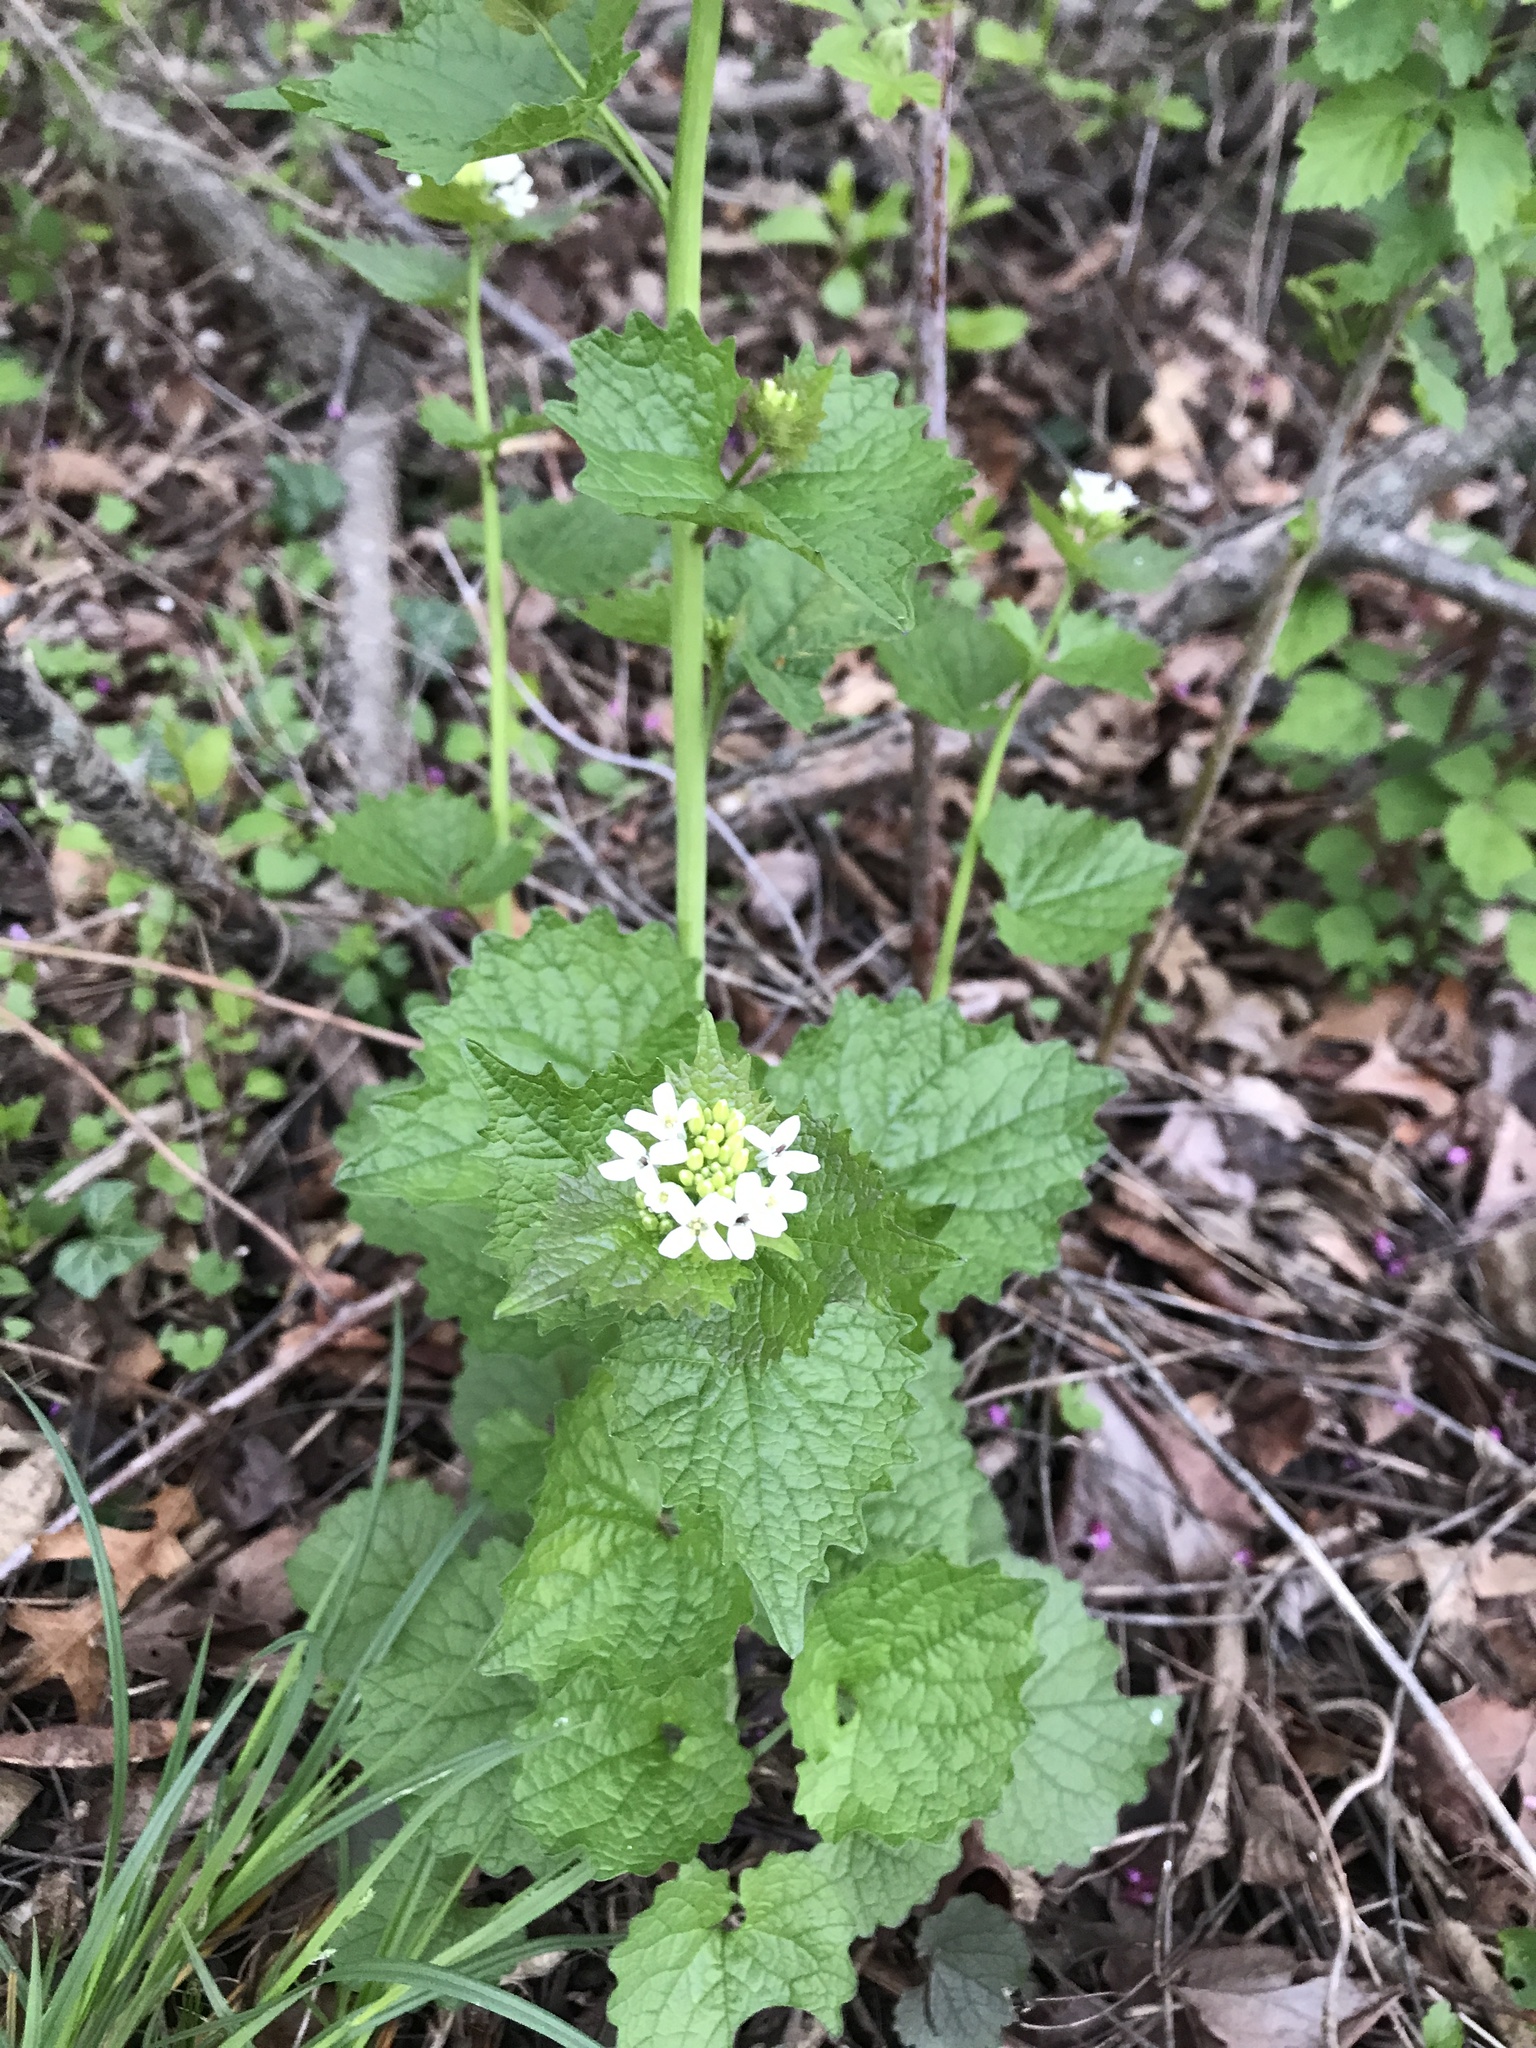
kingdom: Plantae
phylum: Tracheophyta
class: Magnoliopsida
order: Brassicales
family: Brassicaceae
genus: Alliaria
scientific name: Alliaria petiolata
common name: Garlic mustard
